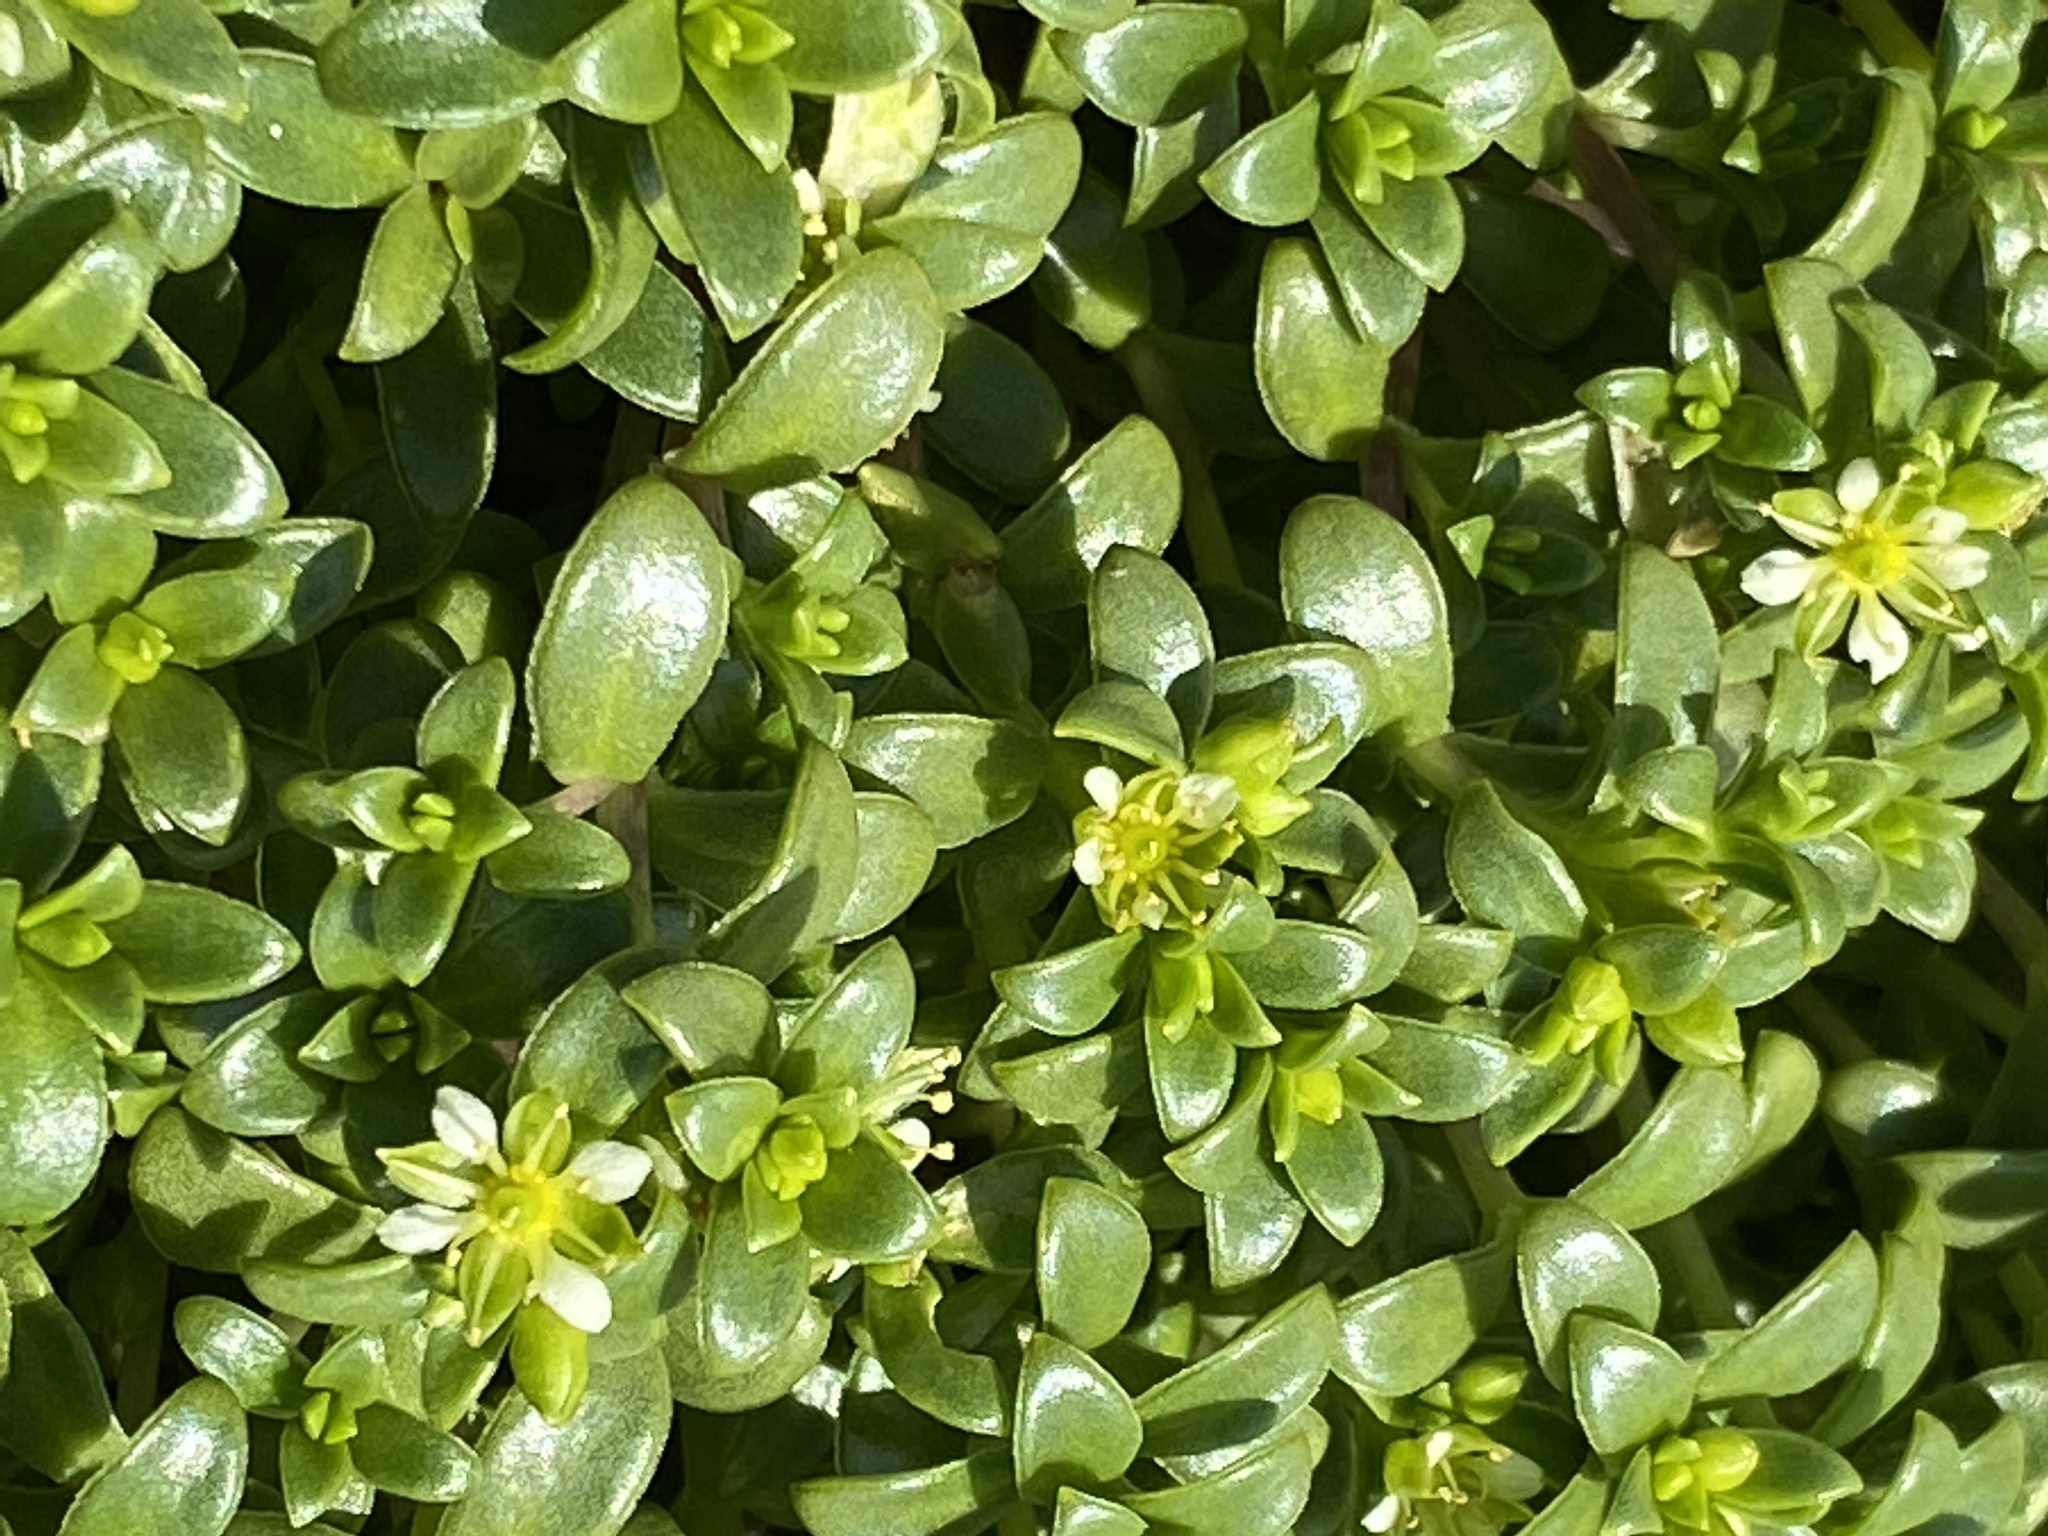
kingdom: Plantae
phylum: Tracheophyta
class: Magnoliopsida
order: Caryophyllales
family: Caryophyllaceae
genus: Honckenya
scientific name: Honckenya peploides
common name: Sea sandwort
